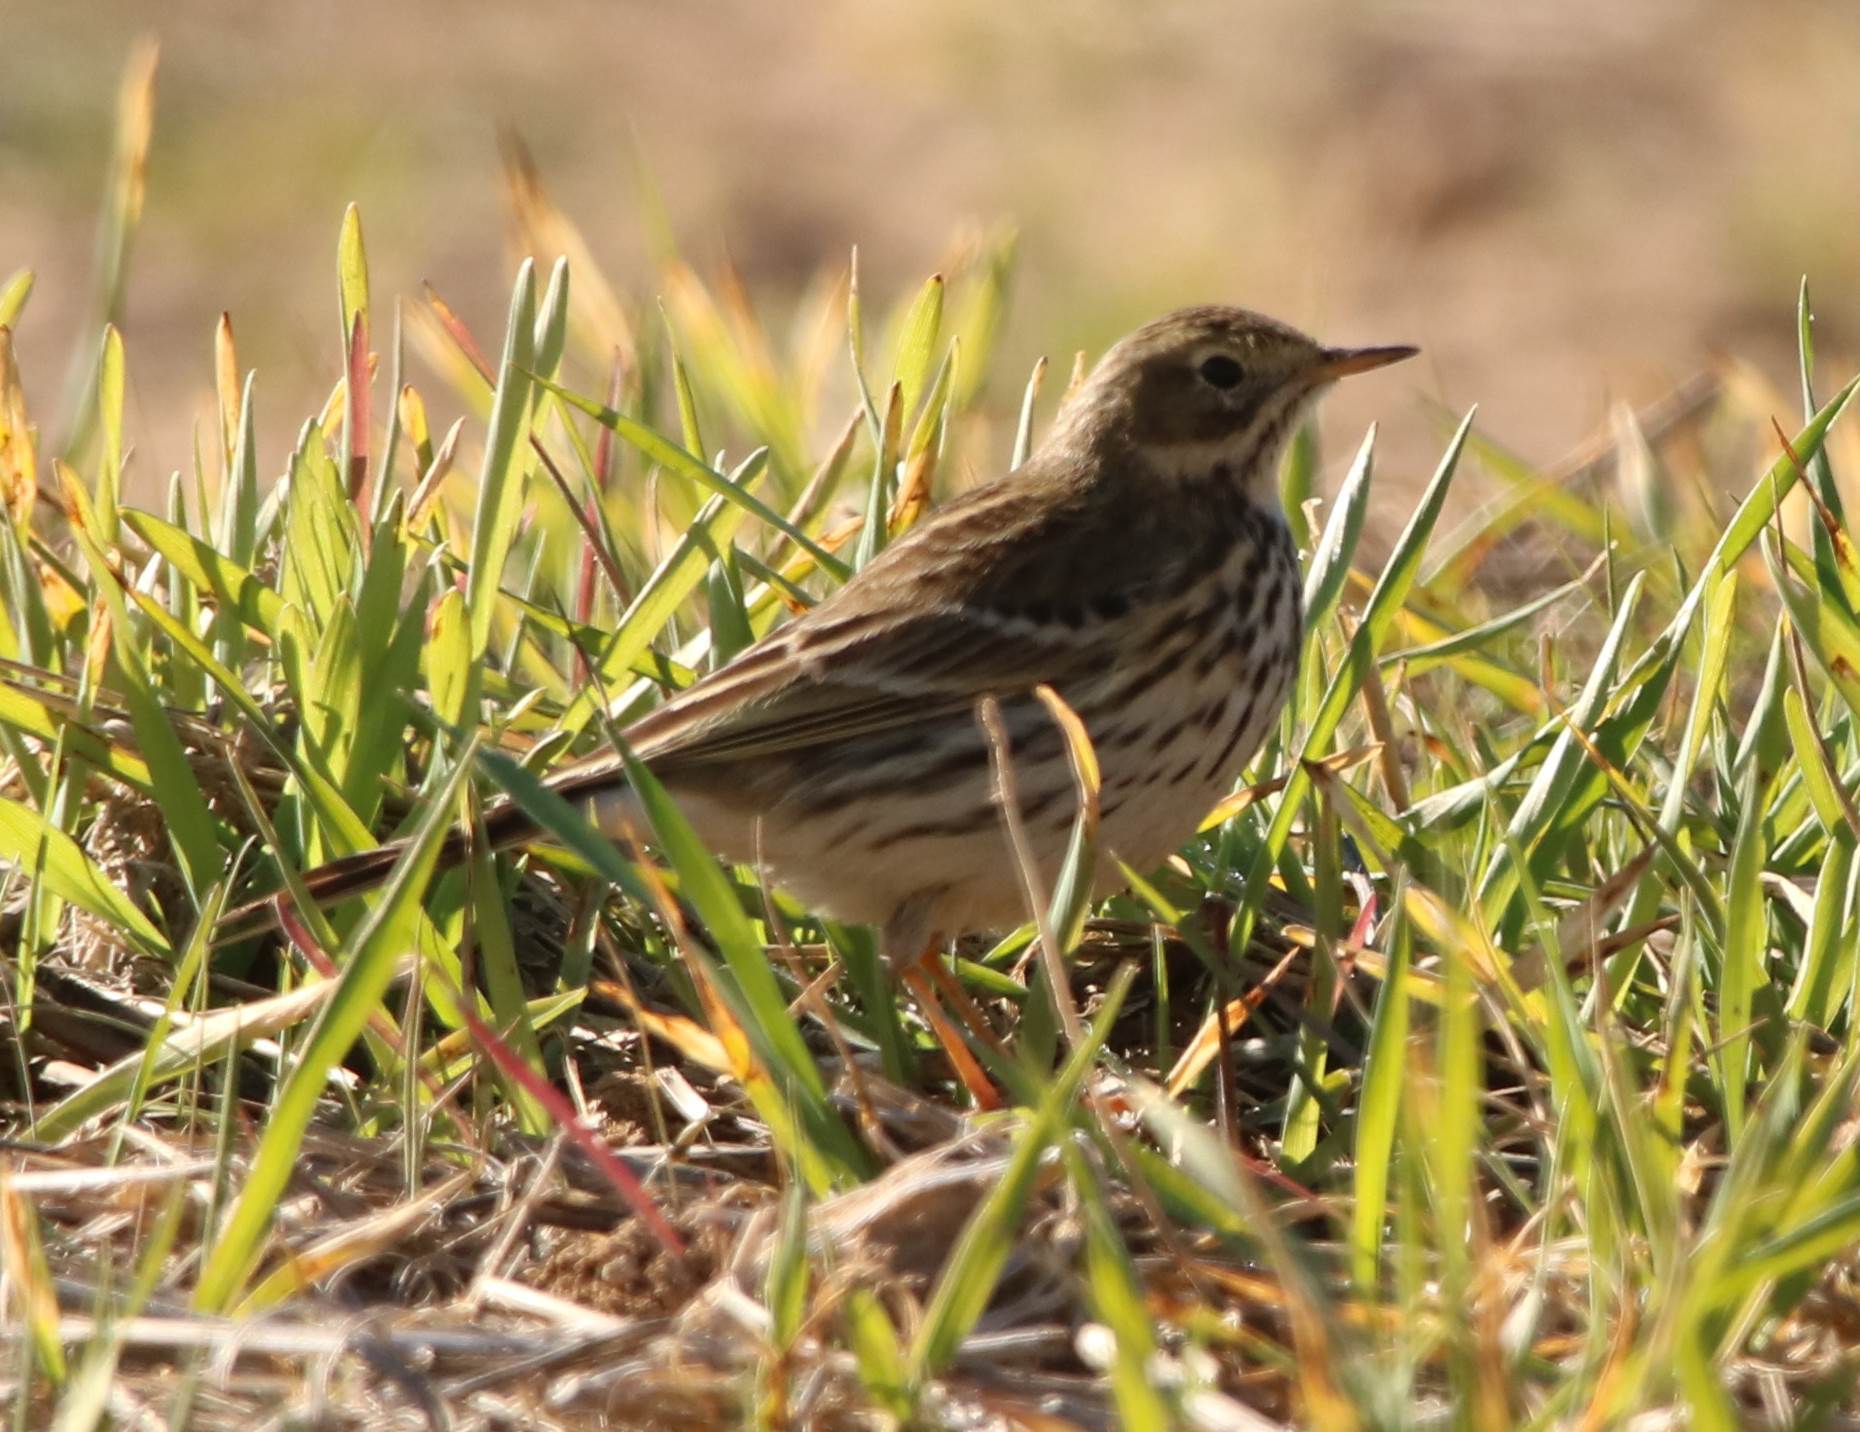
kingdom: Animalia
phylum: Chordata
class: Aves
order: Passeriformes
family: Motacillidae
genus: Anthus
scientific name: Anthus pratensis
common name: Meadow pipit
